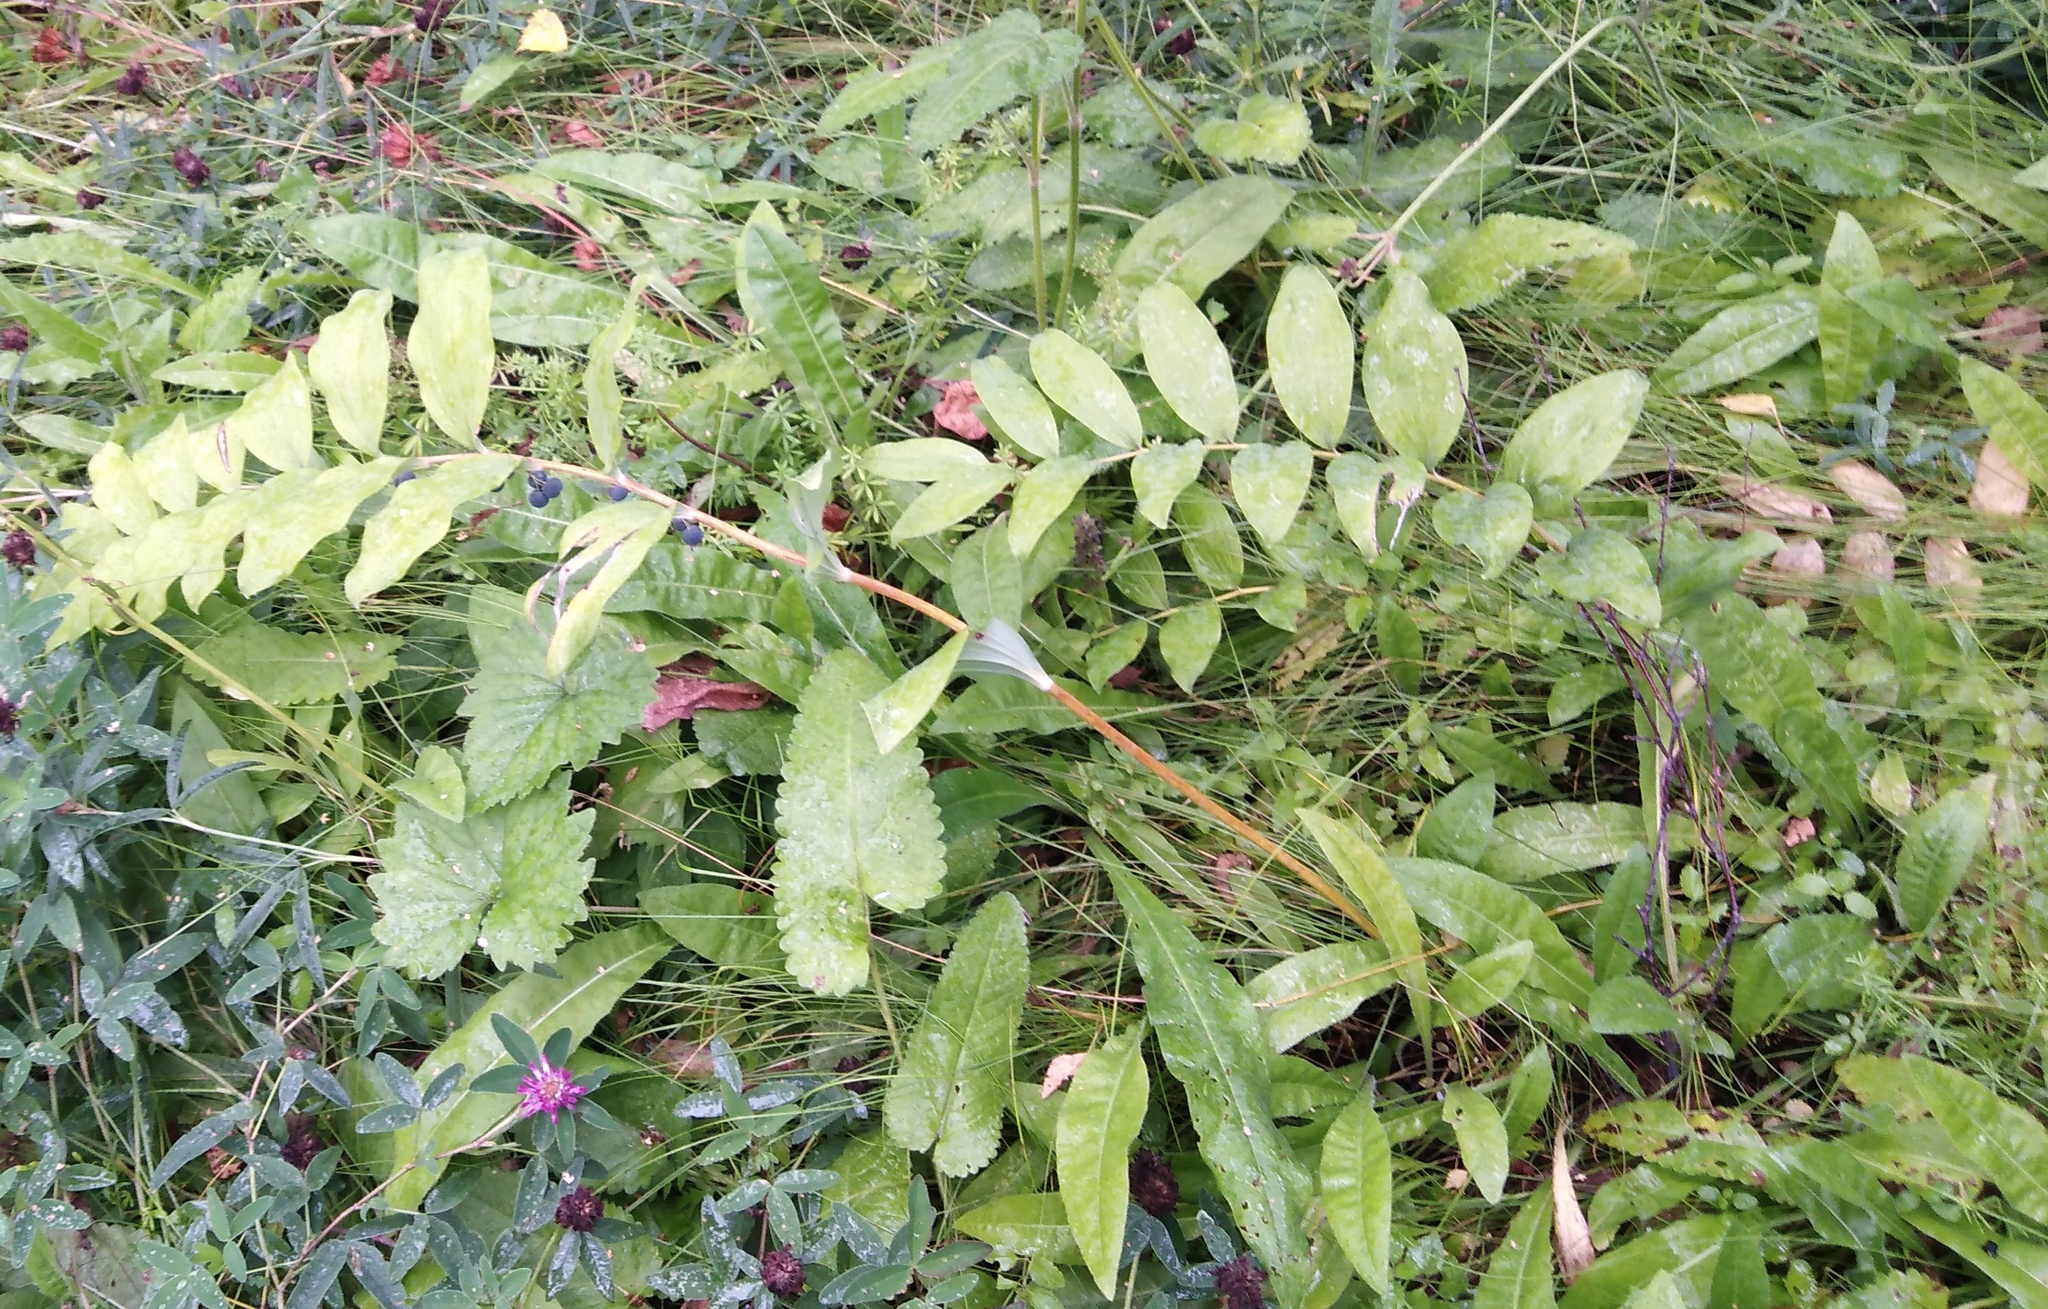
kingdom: Plantae
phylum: Tracheophyta
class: Liliopsida
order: Asparagales
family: Asparagaceae
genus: Polygonatum
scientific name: Polygonatum multiflorum
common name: Solomon's-seal
